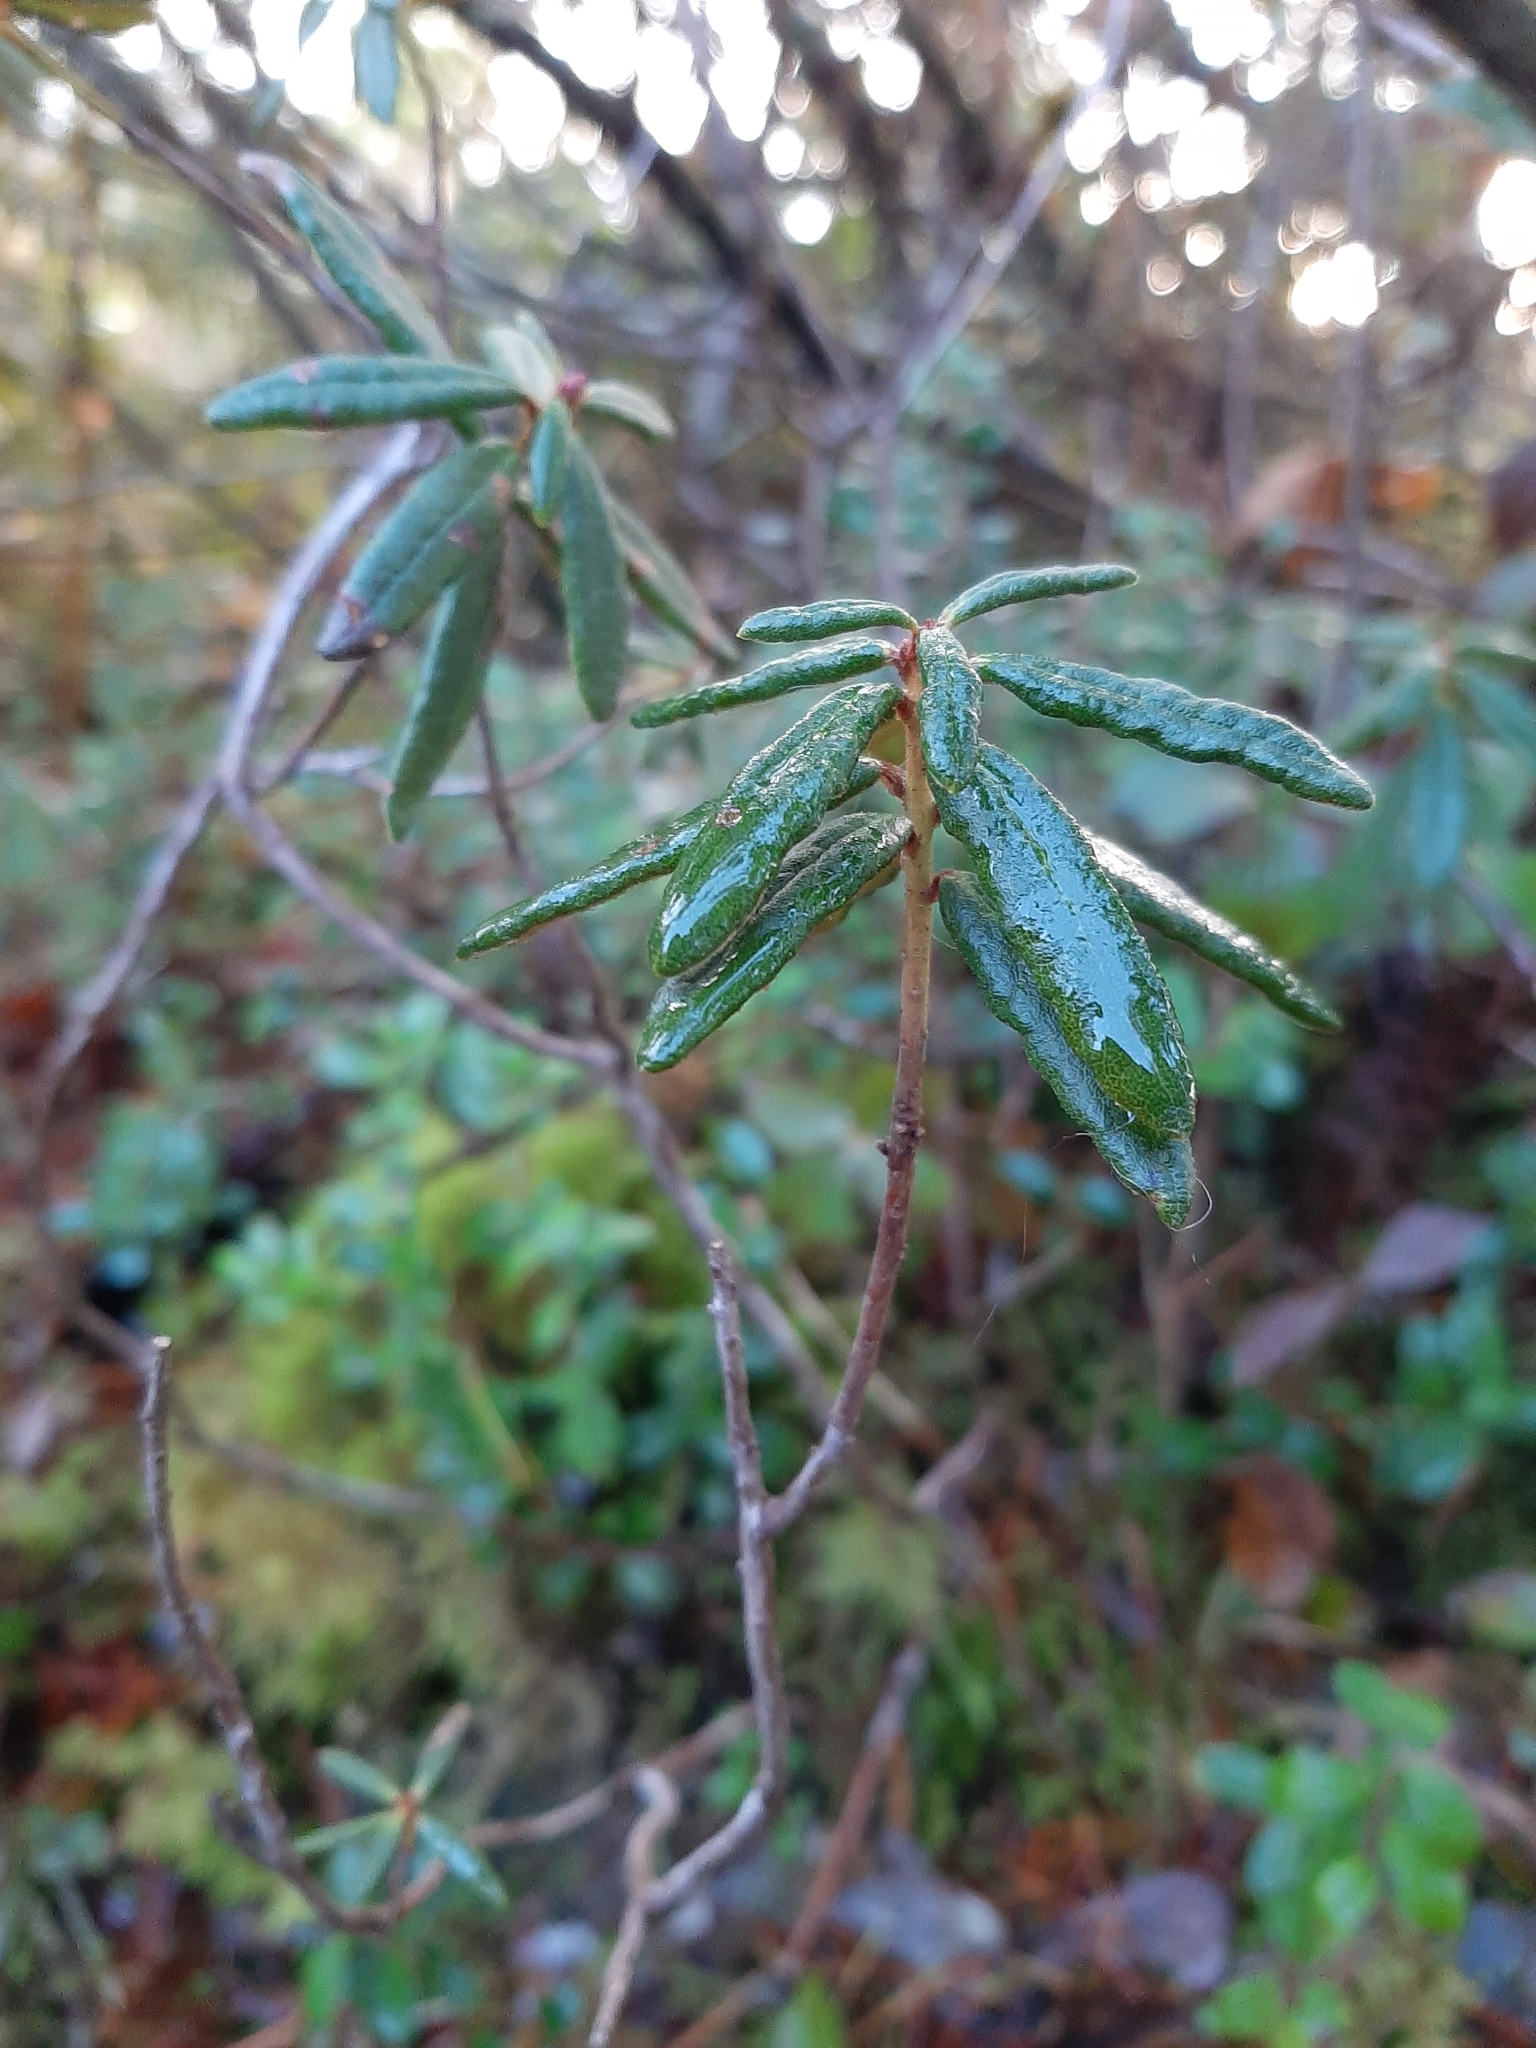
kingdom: Plantae
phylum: Tracheophyta
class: Magnoliopsida
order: Ericales
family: Ericaceae
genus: Rhododendron
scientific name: Rhododendron groenlandicum
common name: Bog labrador tea
